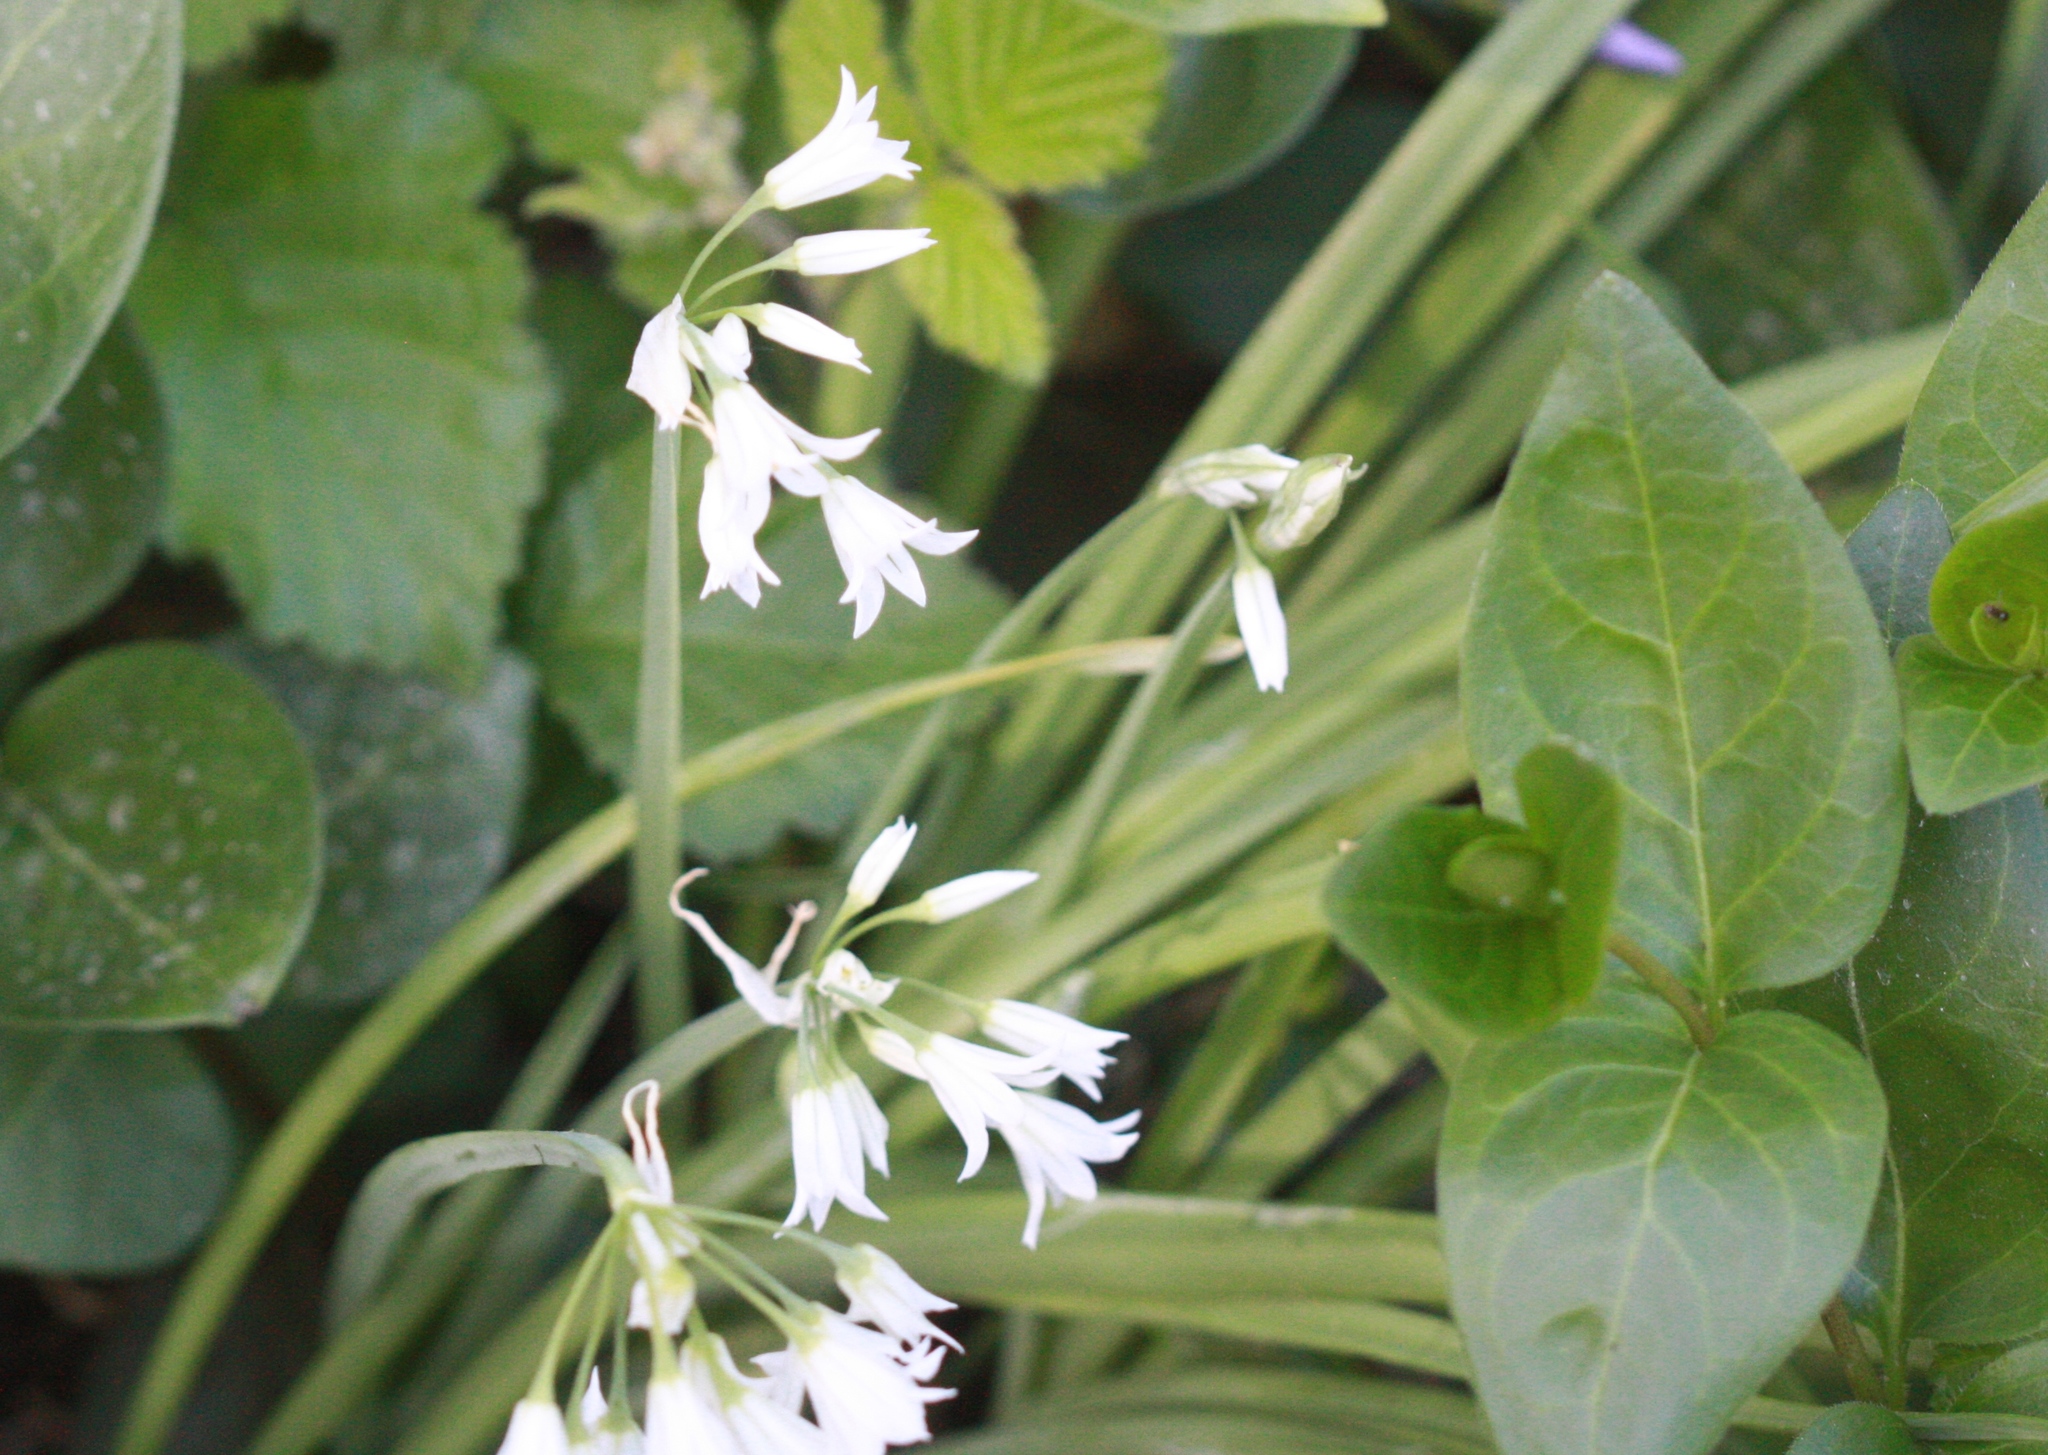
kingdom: Plantae
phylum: Tracheophyta
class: Liliopsida
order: Asparagales
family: Amaryllidaceae
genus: Allium
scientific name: Allium triquetrum
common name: Three-cornered garlic
